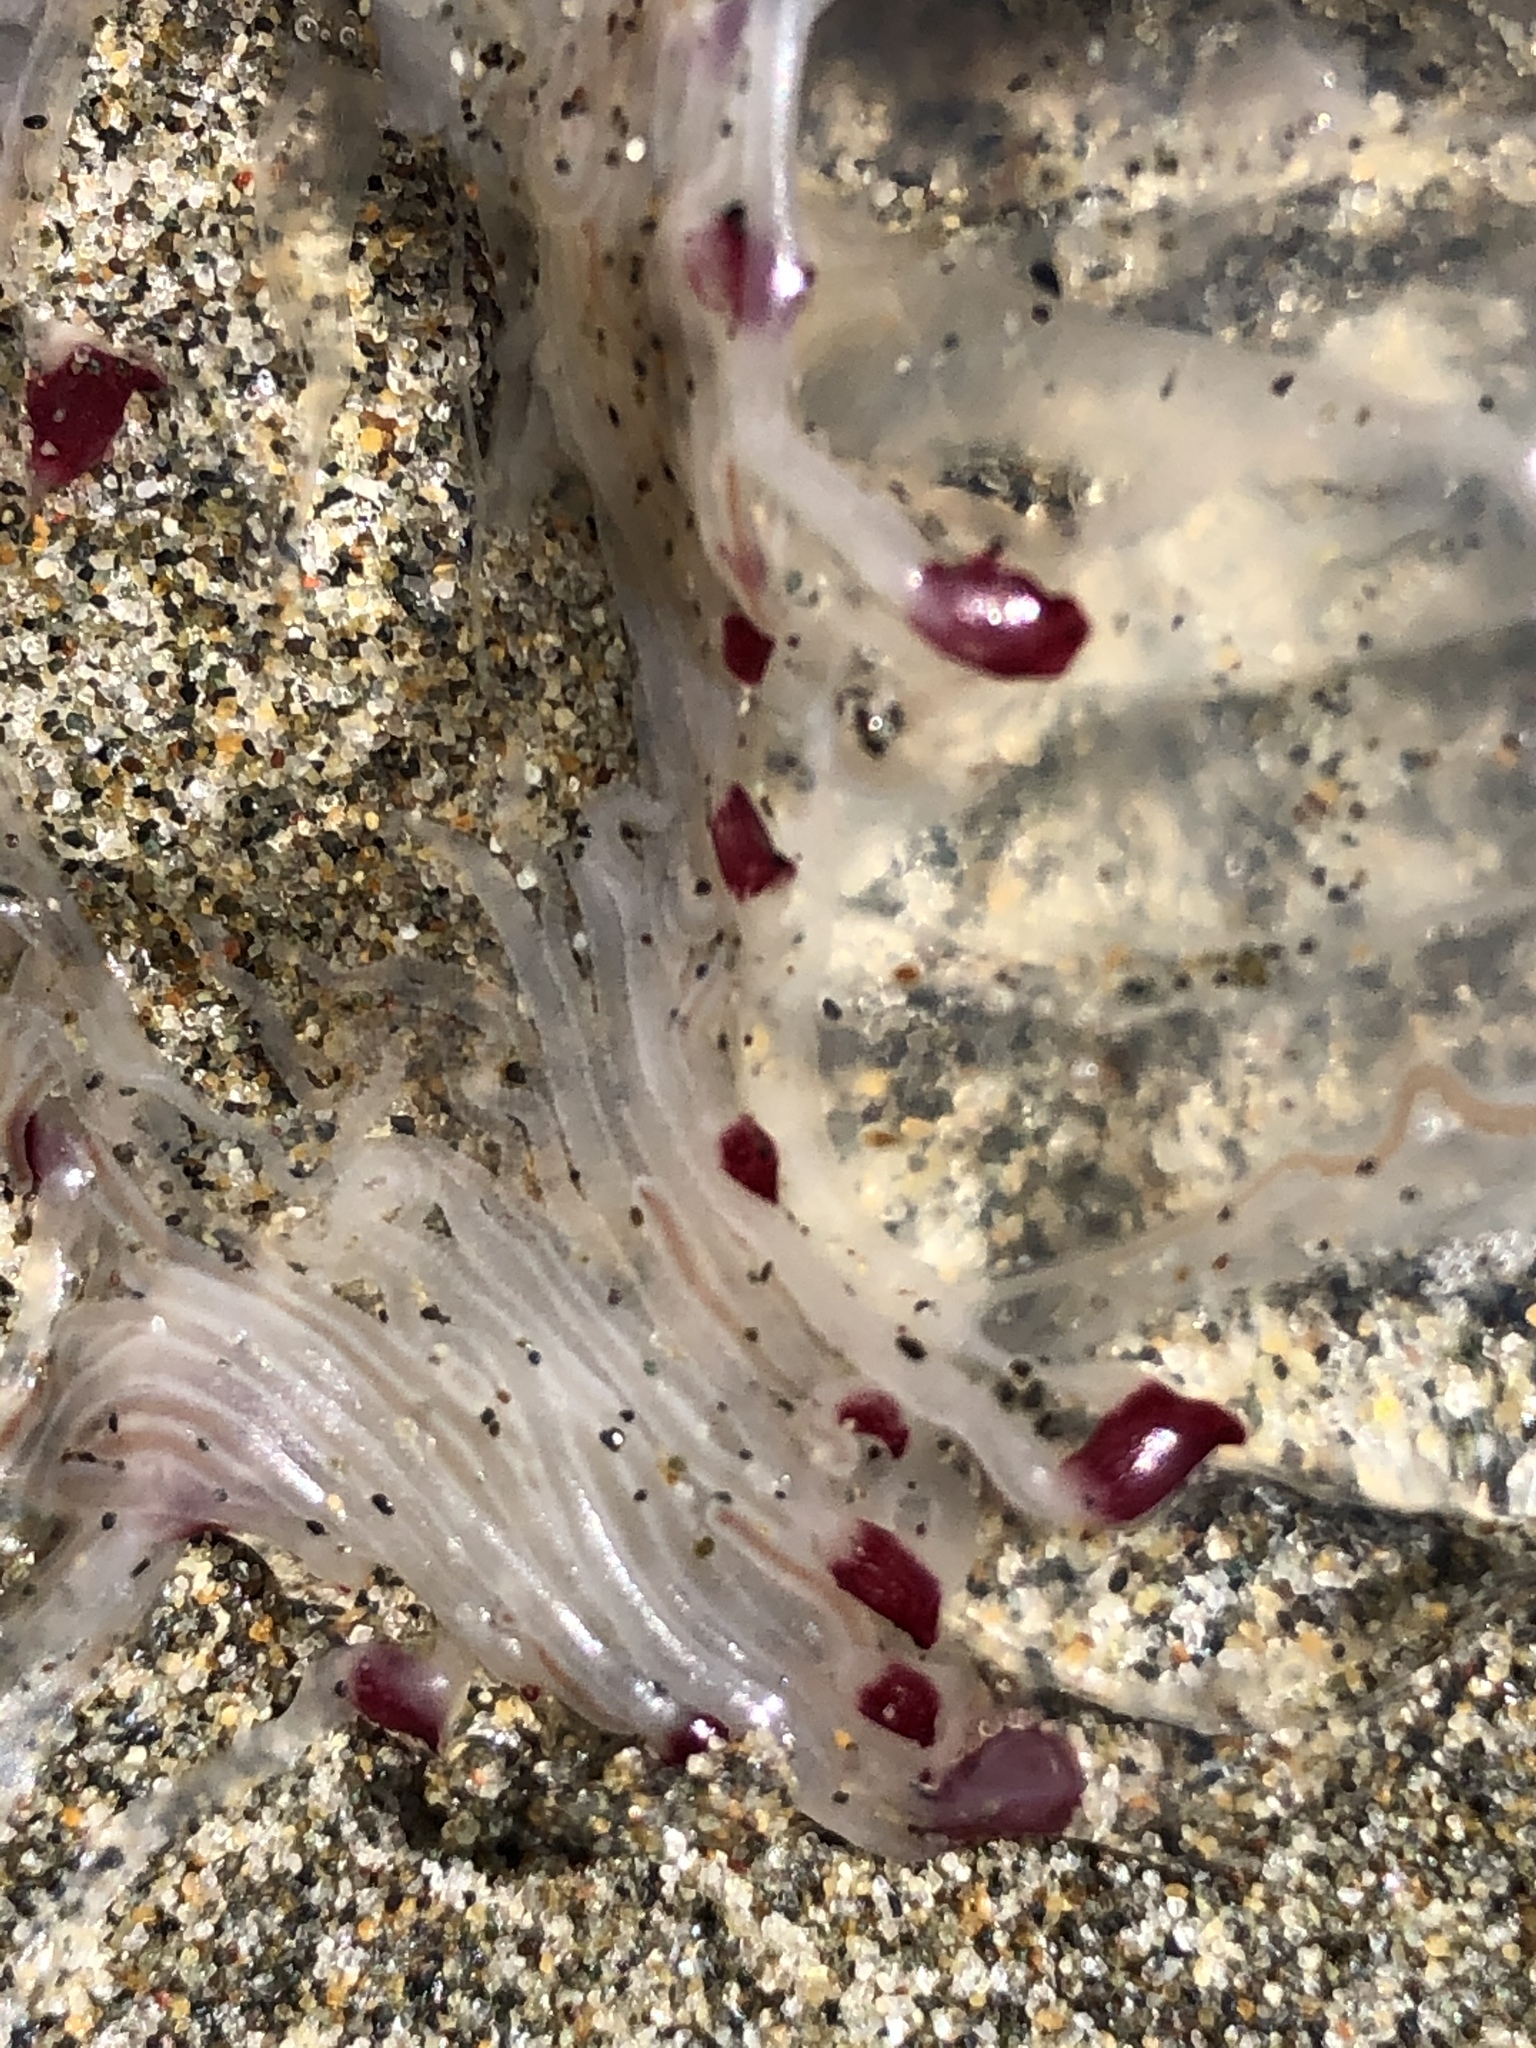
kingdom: Animalia
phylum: Cnidaria
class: Hydrozoa
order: Anthoathecata
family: Corynidae
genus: Scrippsia
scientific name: Scrippsia pacifica
